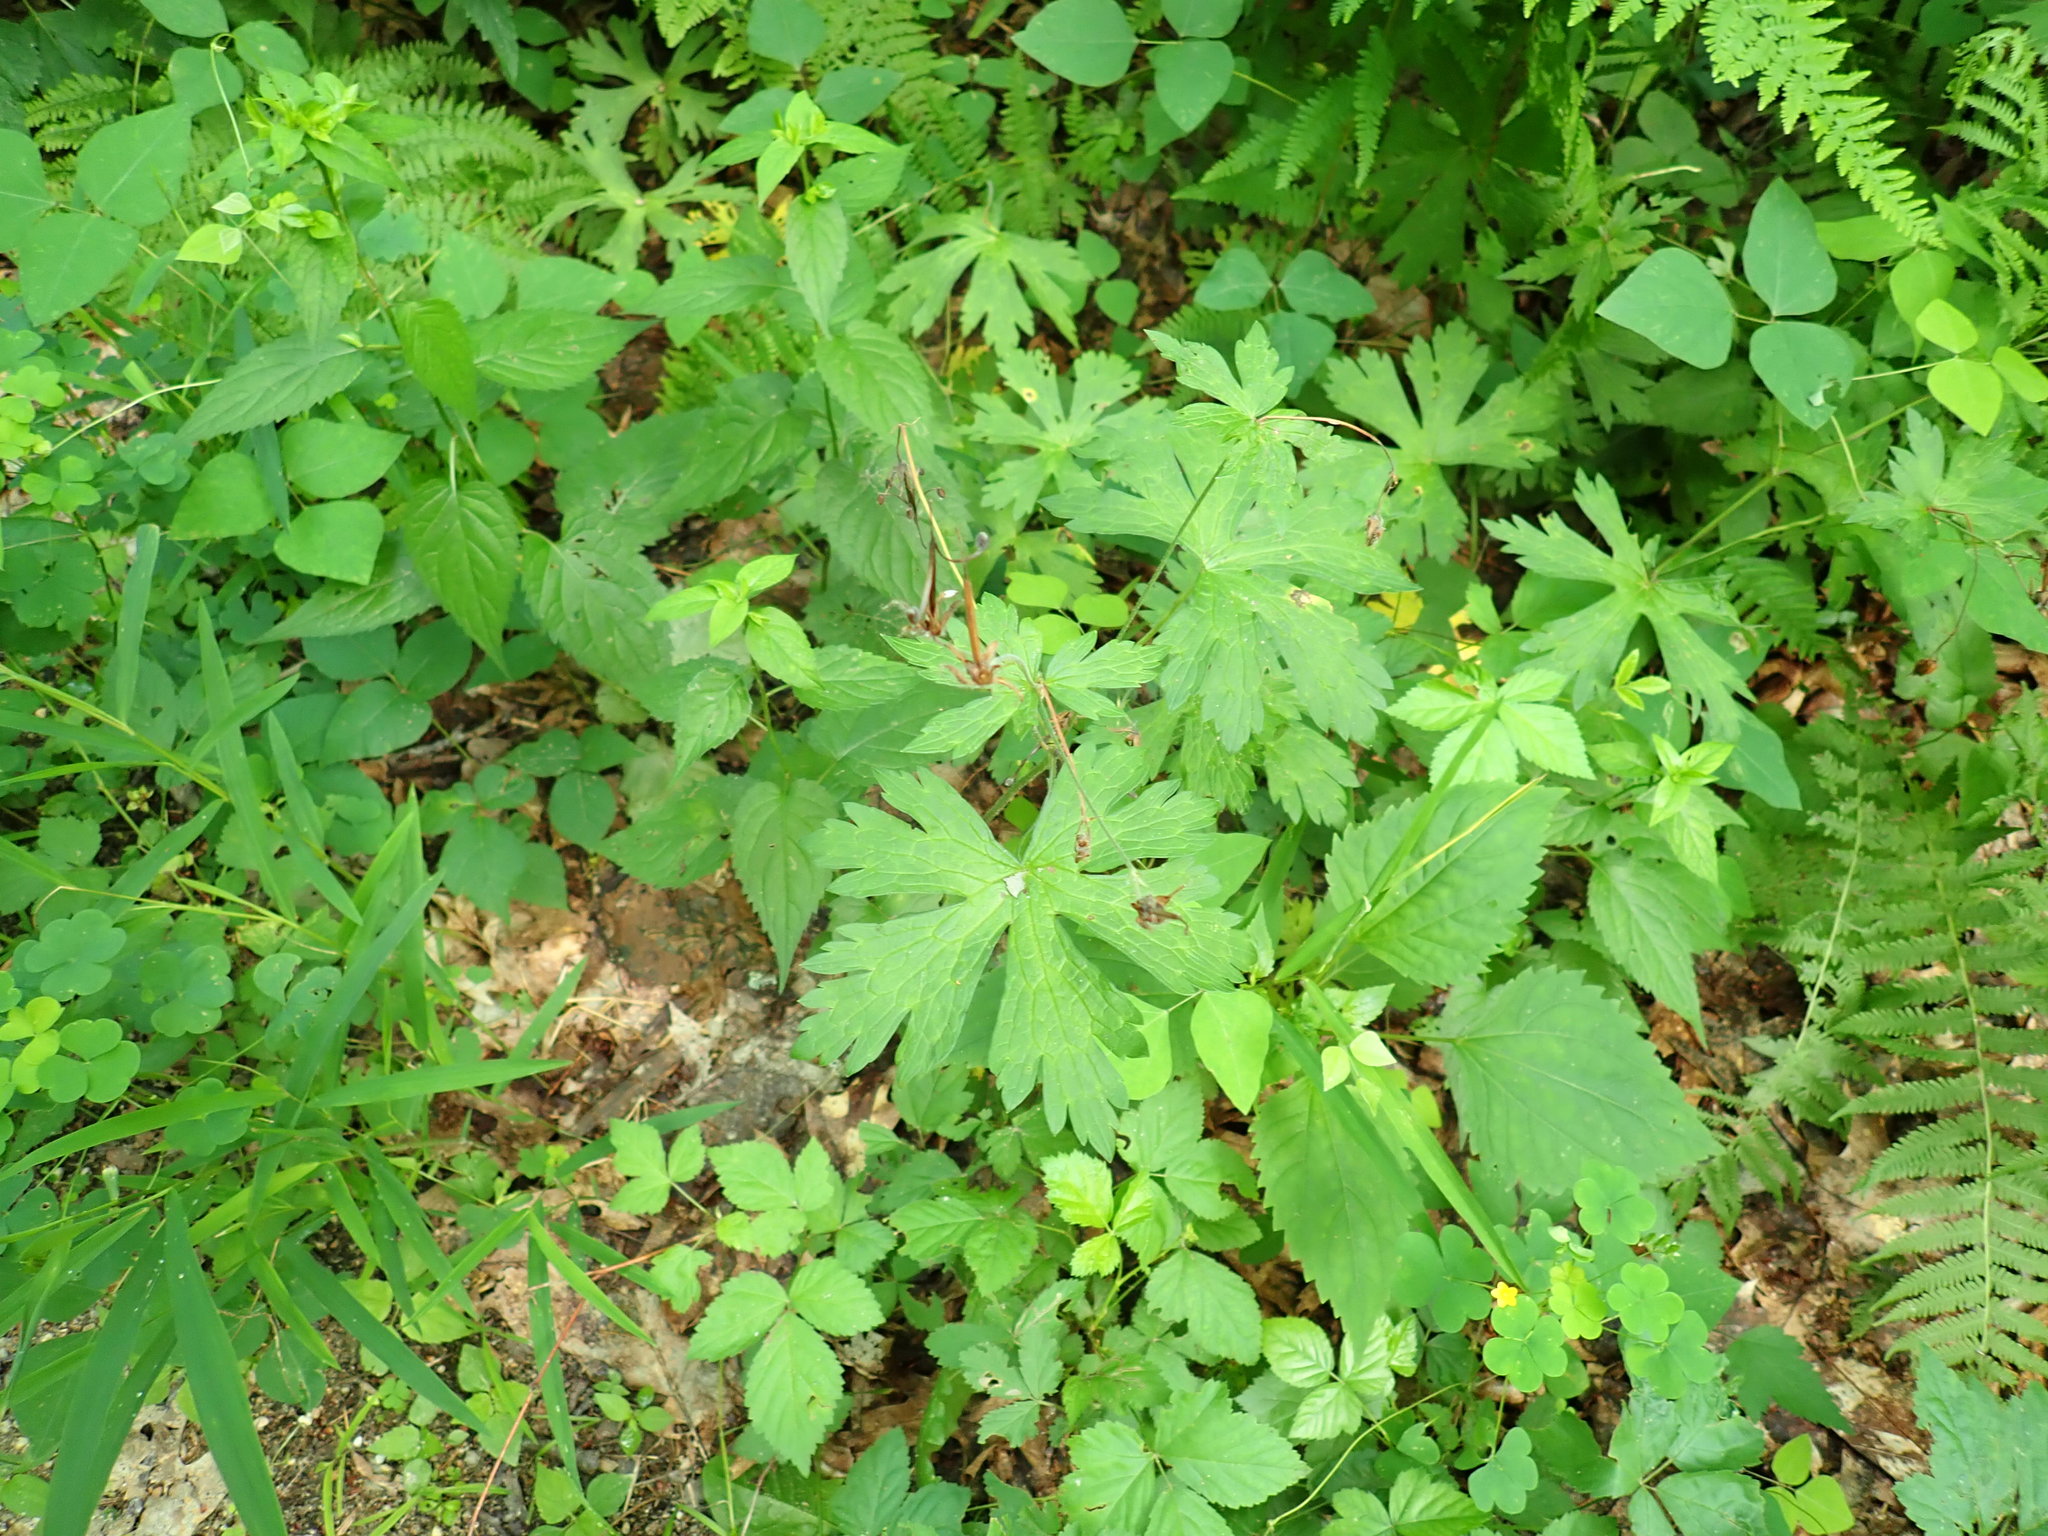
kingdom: Plantae
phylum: Tracheophyta
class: Magnoliopsida
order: Geraniales
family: Geraniaceae
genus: Geranium
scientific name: Geranium maculatum
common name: Spotted geranium
